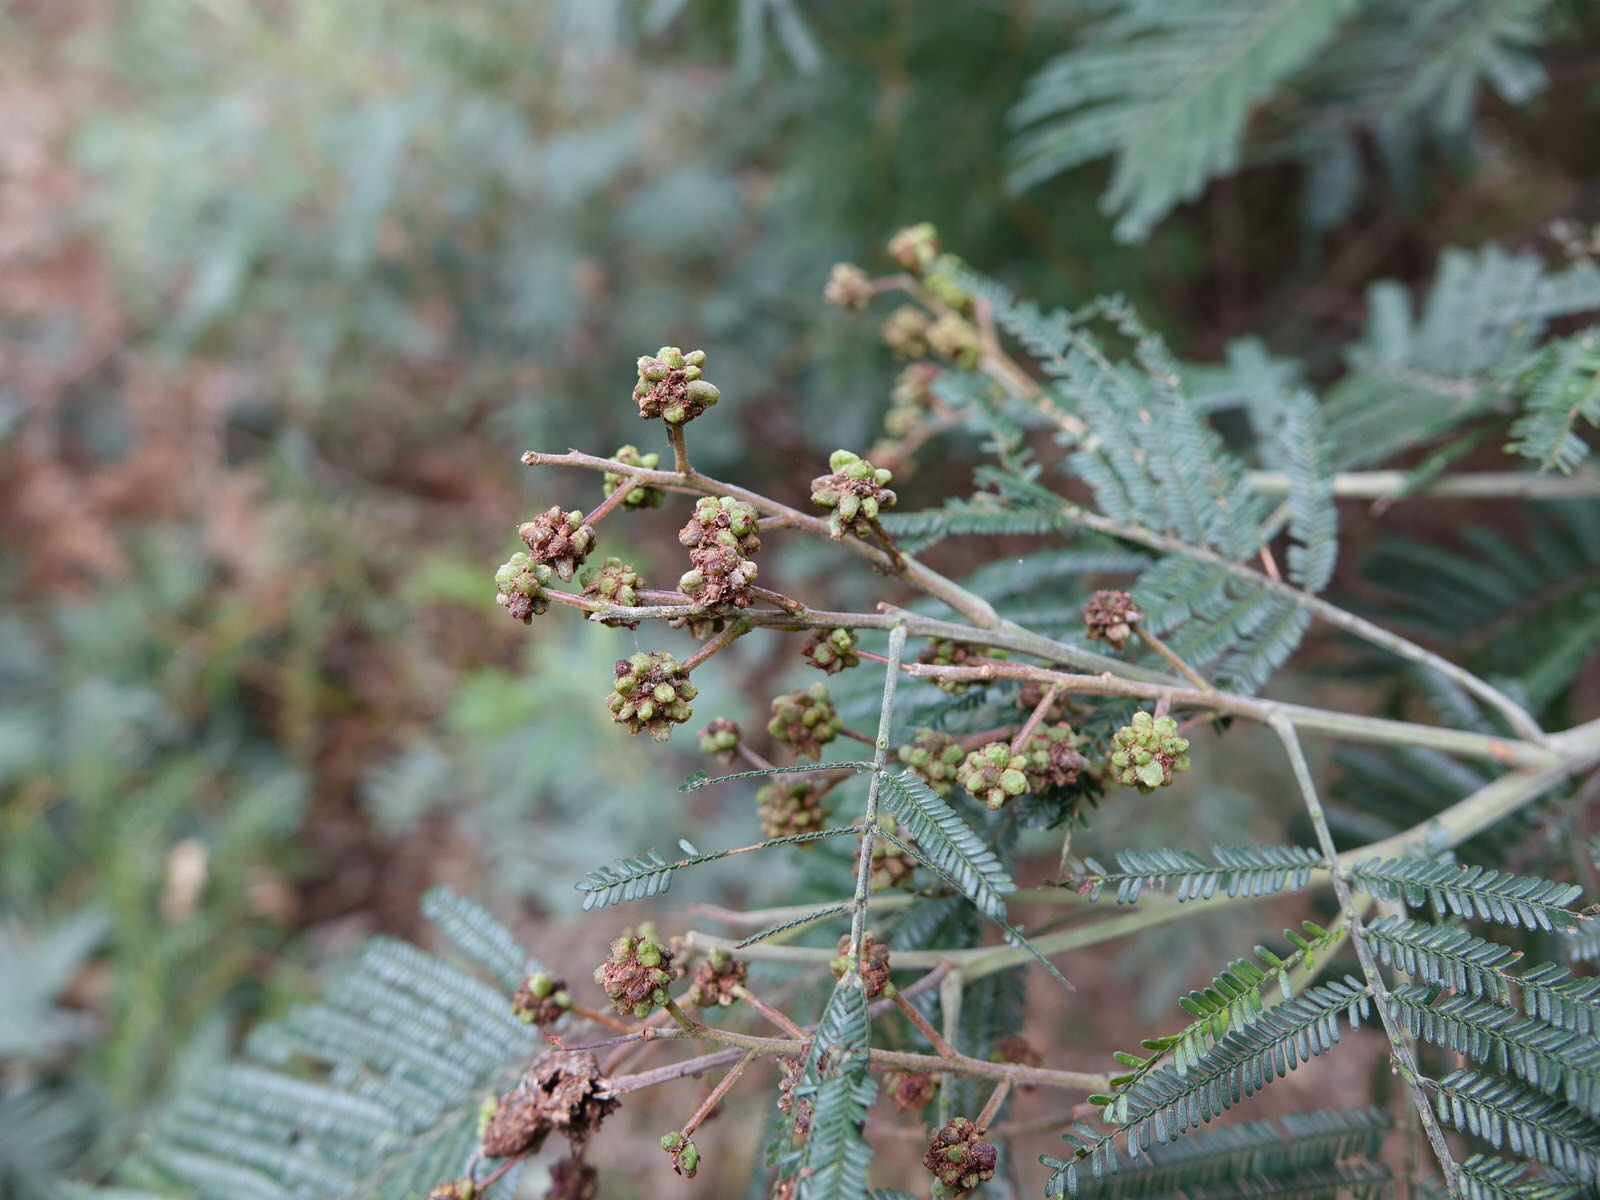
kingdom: Plantae
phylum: Tracheophyta
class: Magnoliopsida
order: Fabales
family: Fabaceae
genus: Acacia
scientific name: Acacia mearnsii
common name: Black wattle
